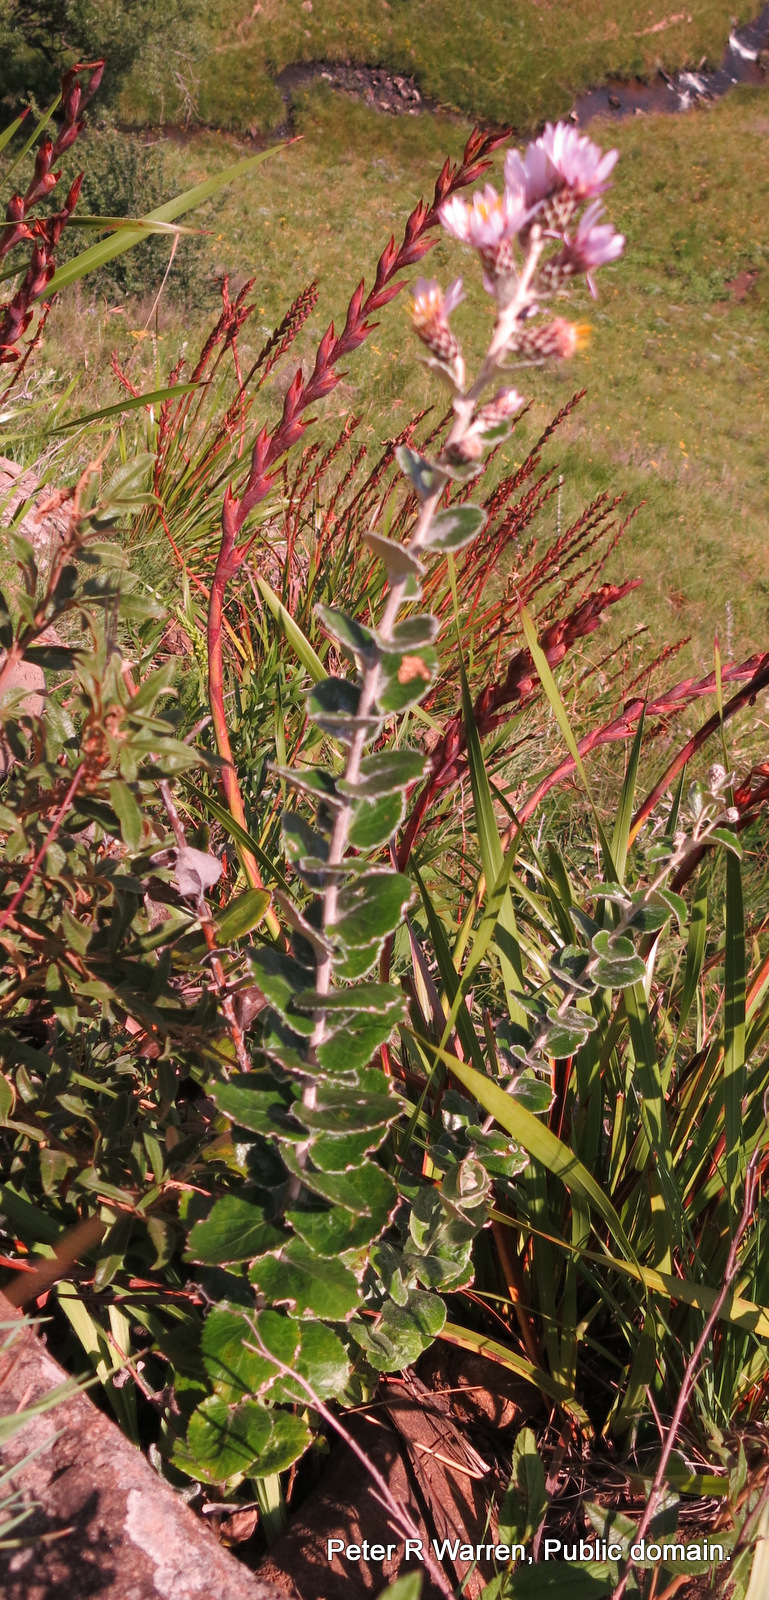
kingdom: Plantae
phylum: Tracheophyta
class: Magnoliopsida
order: Asterales
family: Asteraceae
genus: Printzia
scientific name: Printzia pyrifolia
